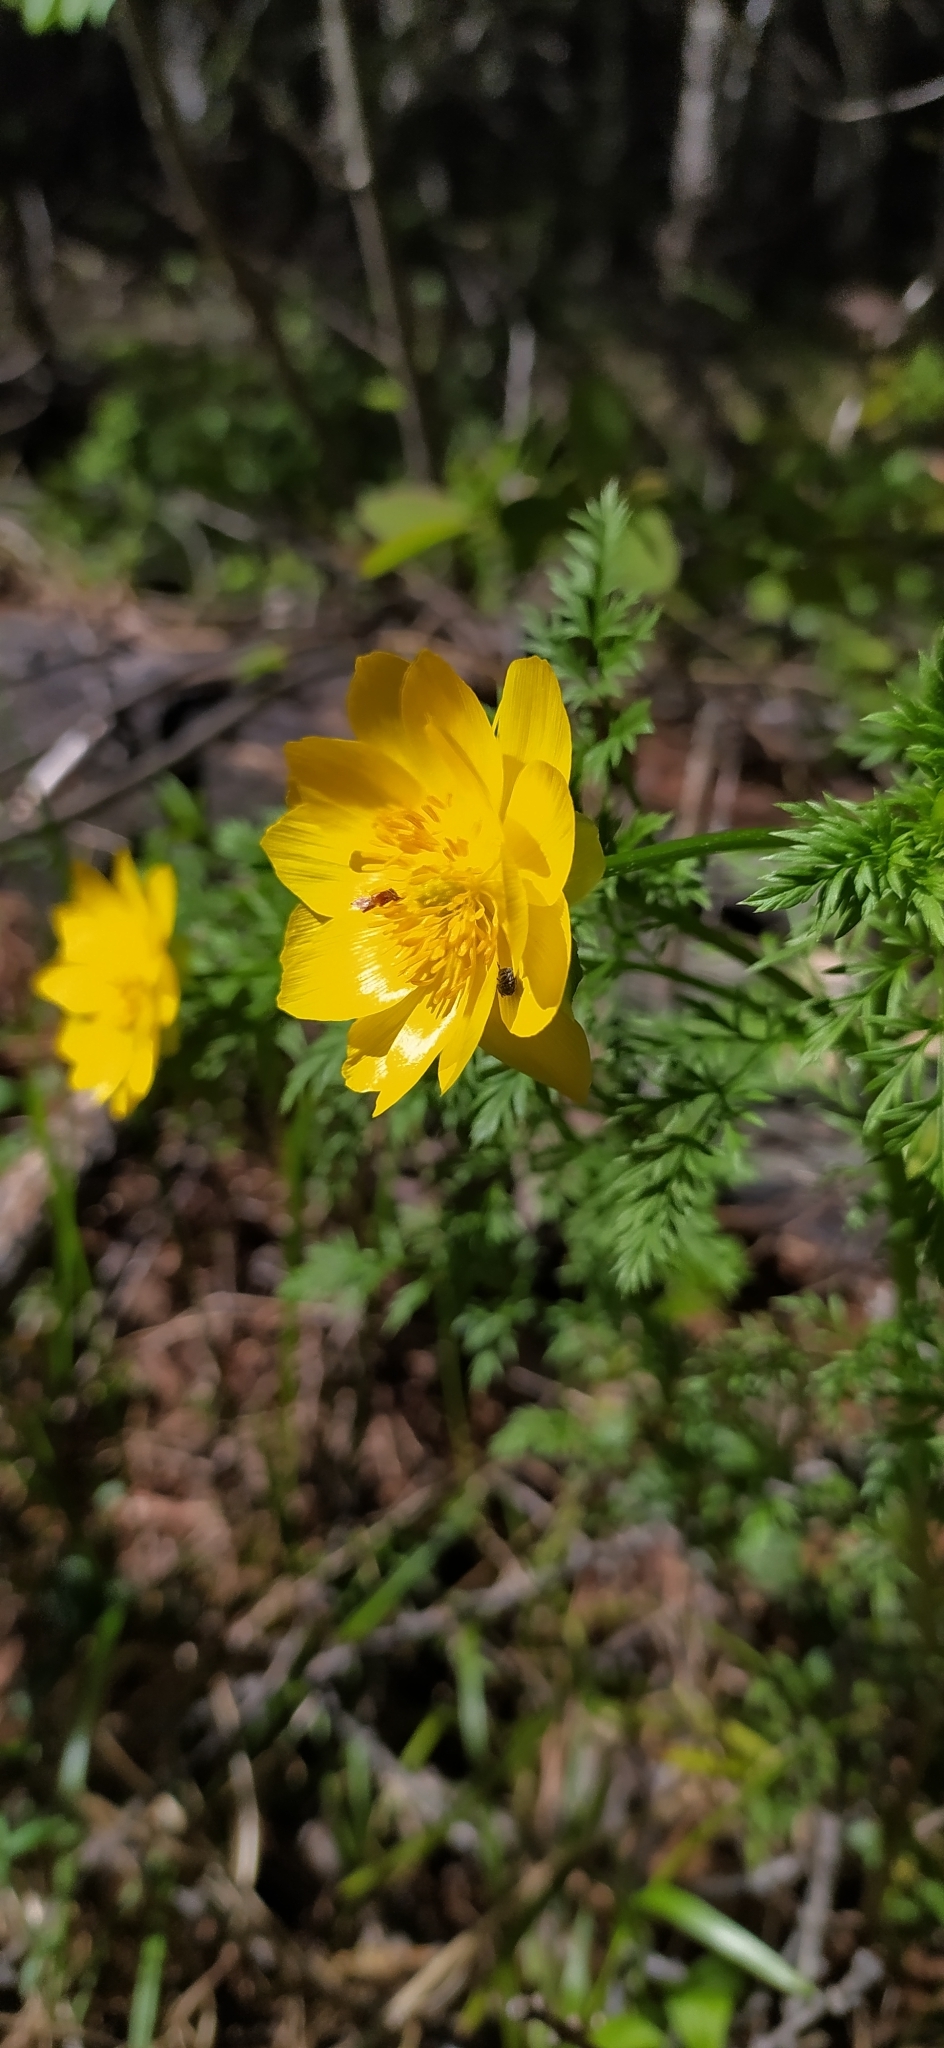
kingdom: Plantae
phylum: Tracheophyta
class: Magnoliopsida
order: Ranunculales
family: Ranunculaceae
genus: Adonis
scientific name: Adonis
